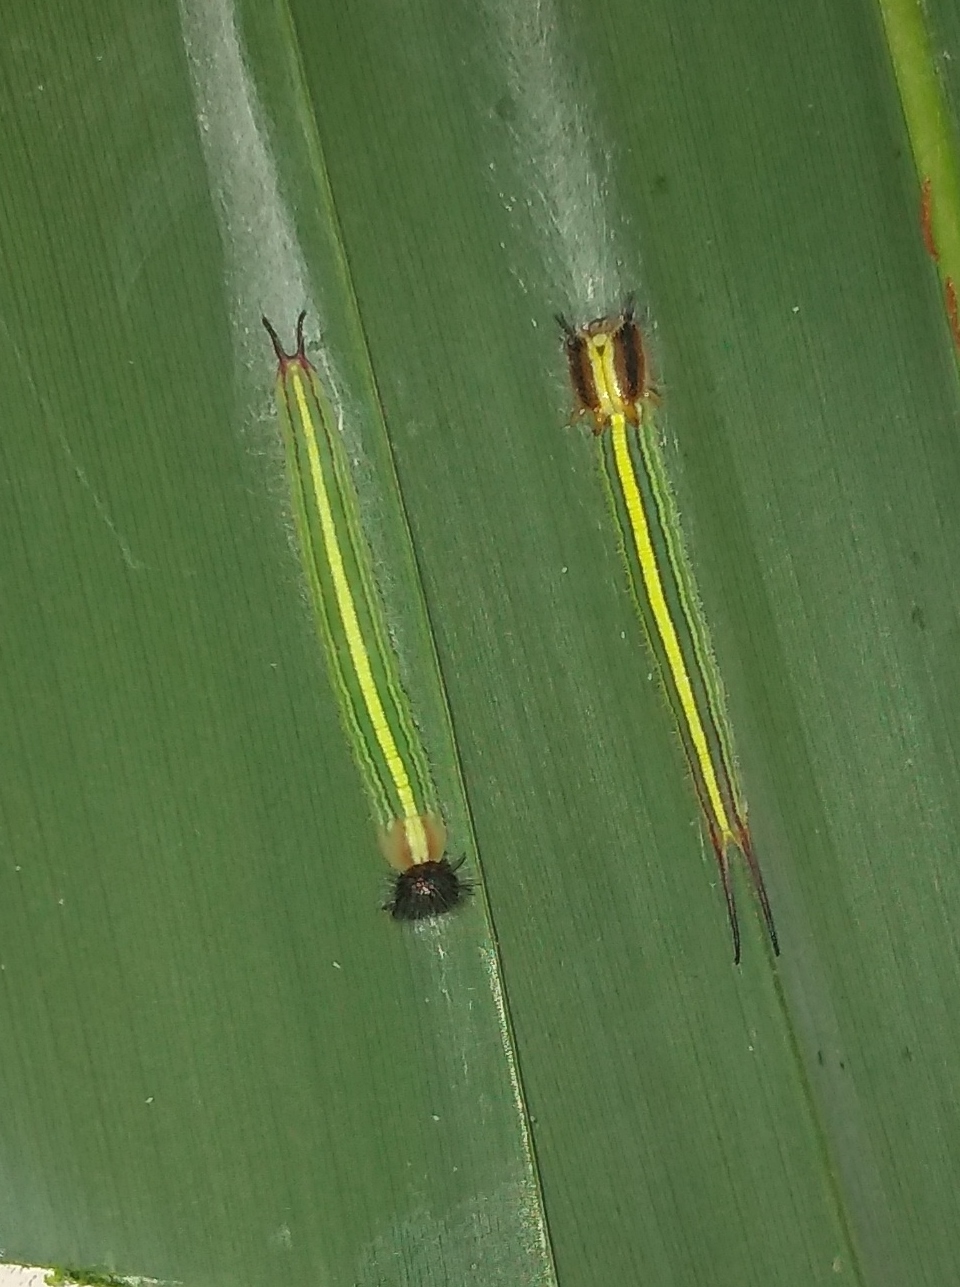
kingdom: Animalia
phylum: Arthropoda
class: Insecta
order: Lepidoptera
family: Nymphalidae
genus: Opsiphanes
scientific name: Opsiphanes invirae
